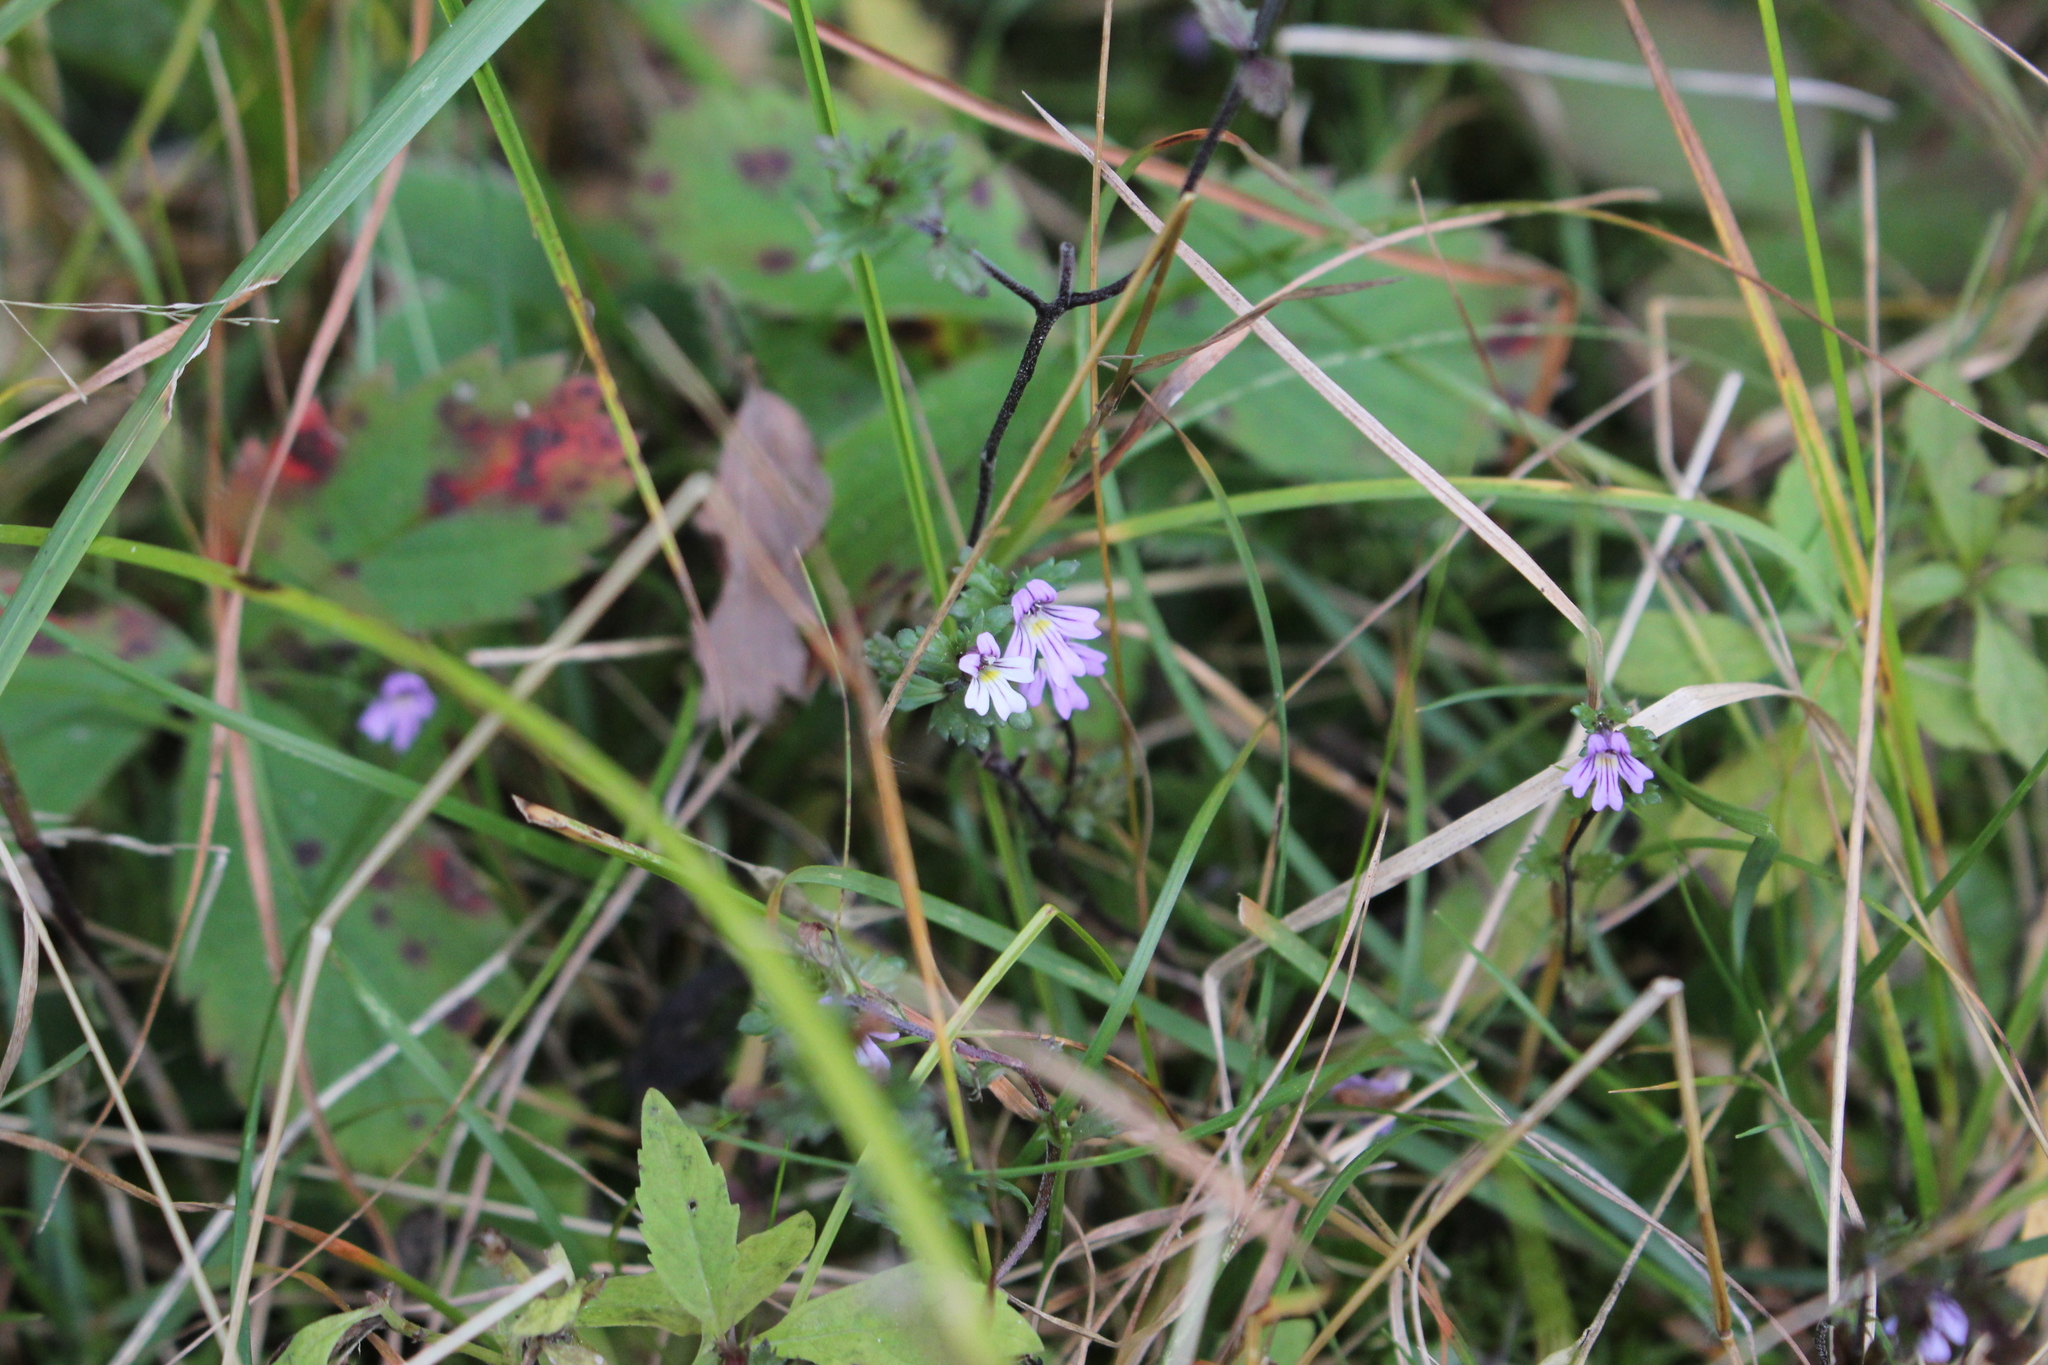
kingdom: Plantae
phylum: Tracheophyta
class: Magnoliopsida
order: Lamiales
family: Orobanchaceae
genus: Euphrasia
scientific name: Euphrasia stricta
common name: Drug eyebright
